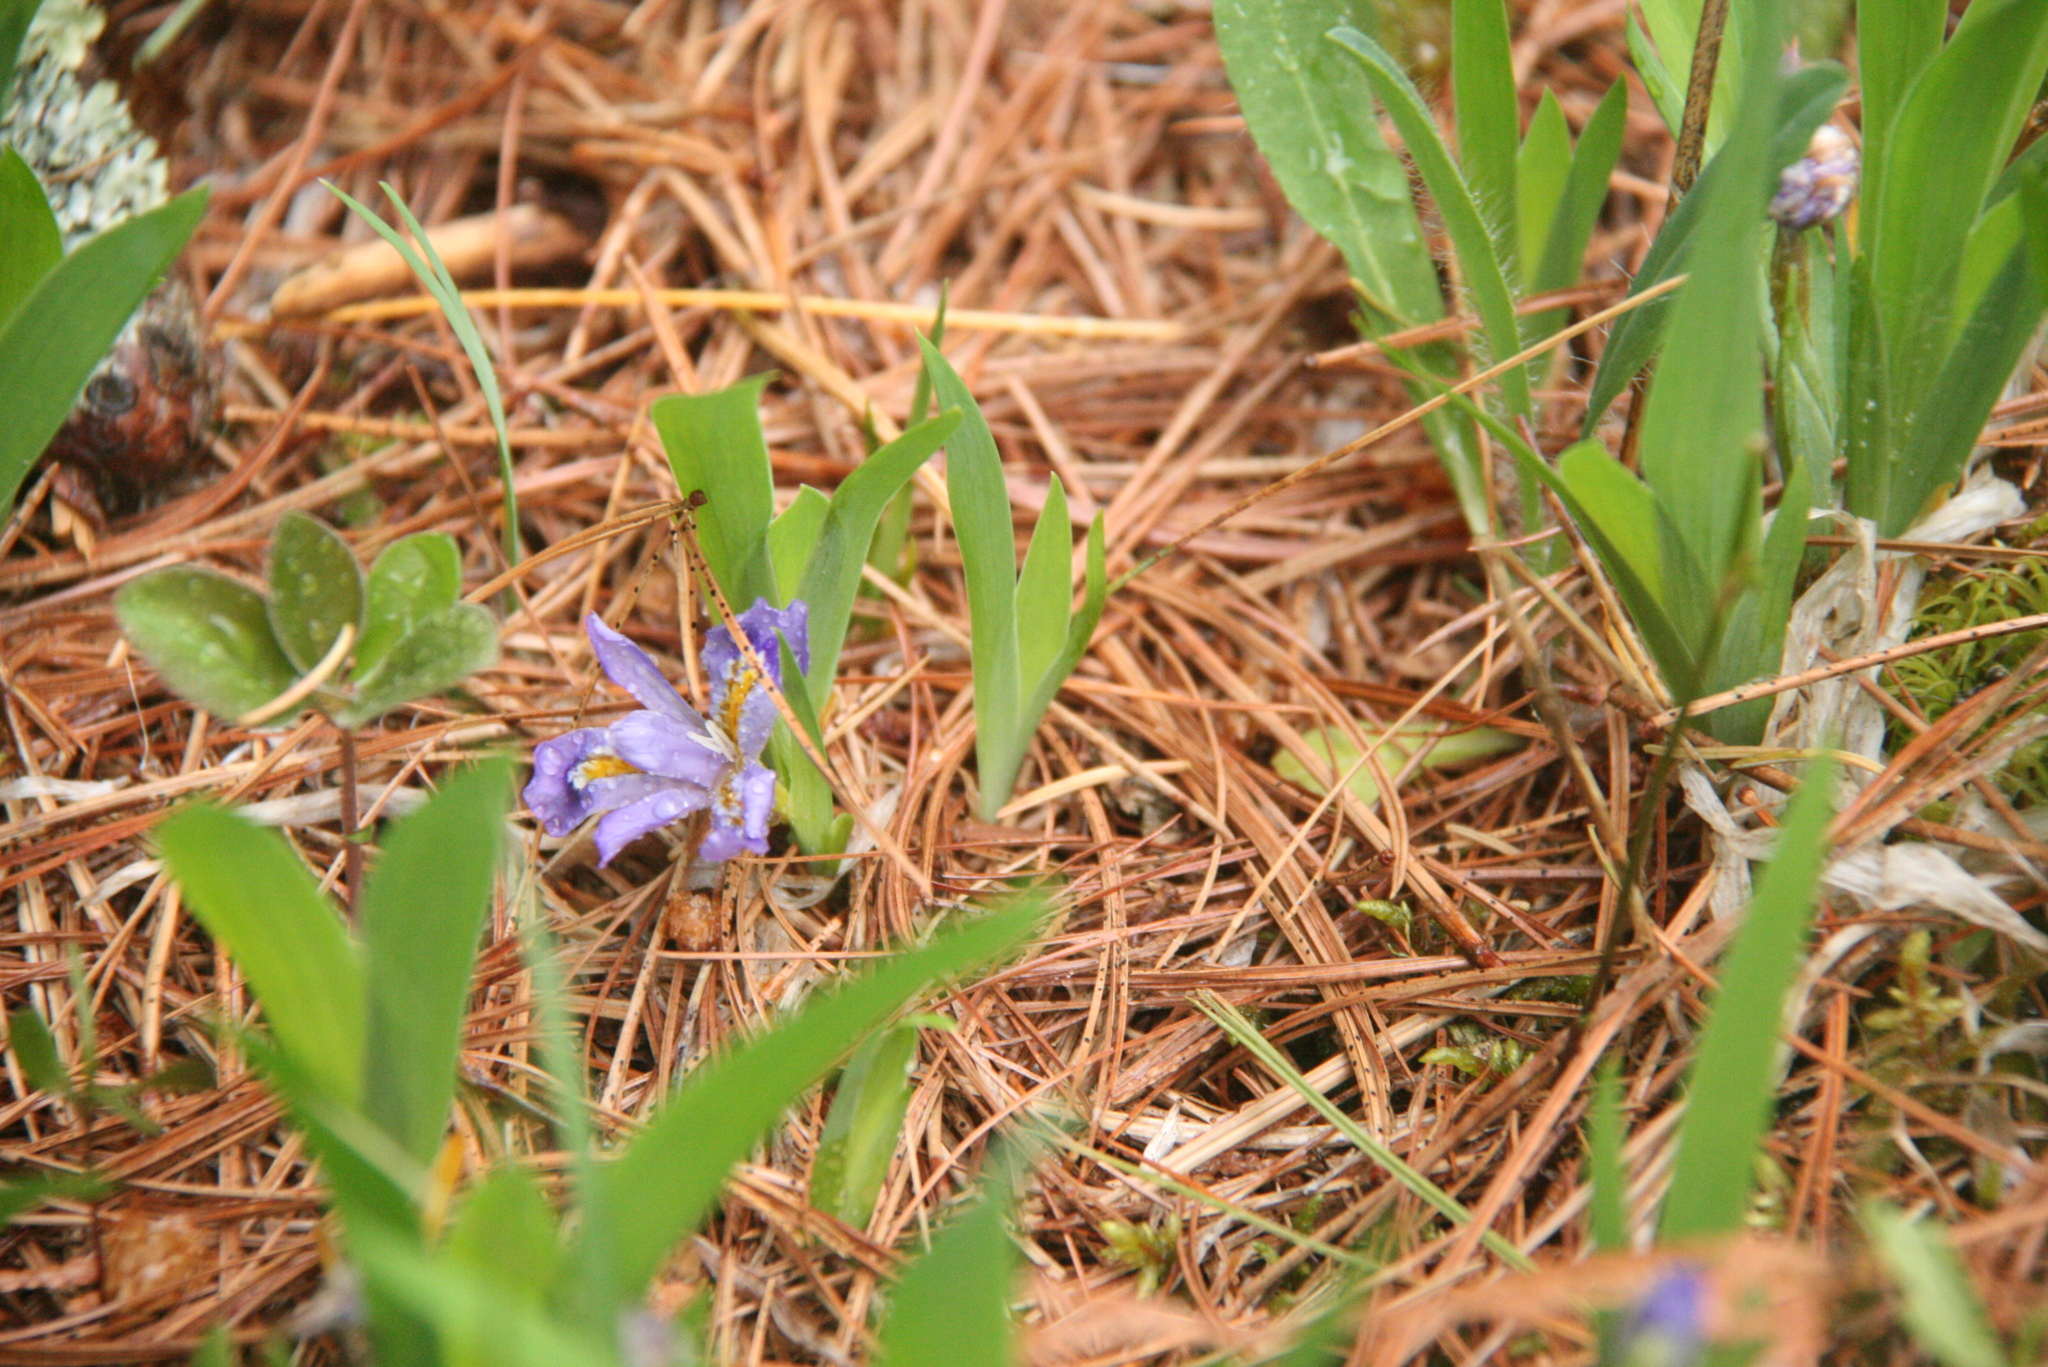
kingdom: Plantae
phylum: Tracheophyta
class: Liliopsida
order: Asparagales
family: Iridaceae
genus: Iris
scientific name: Iris lacustris
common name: Dwarf lake iris
